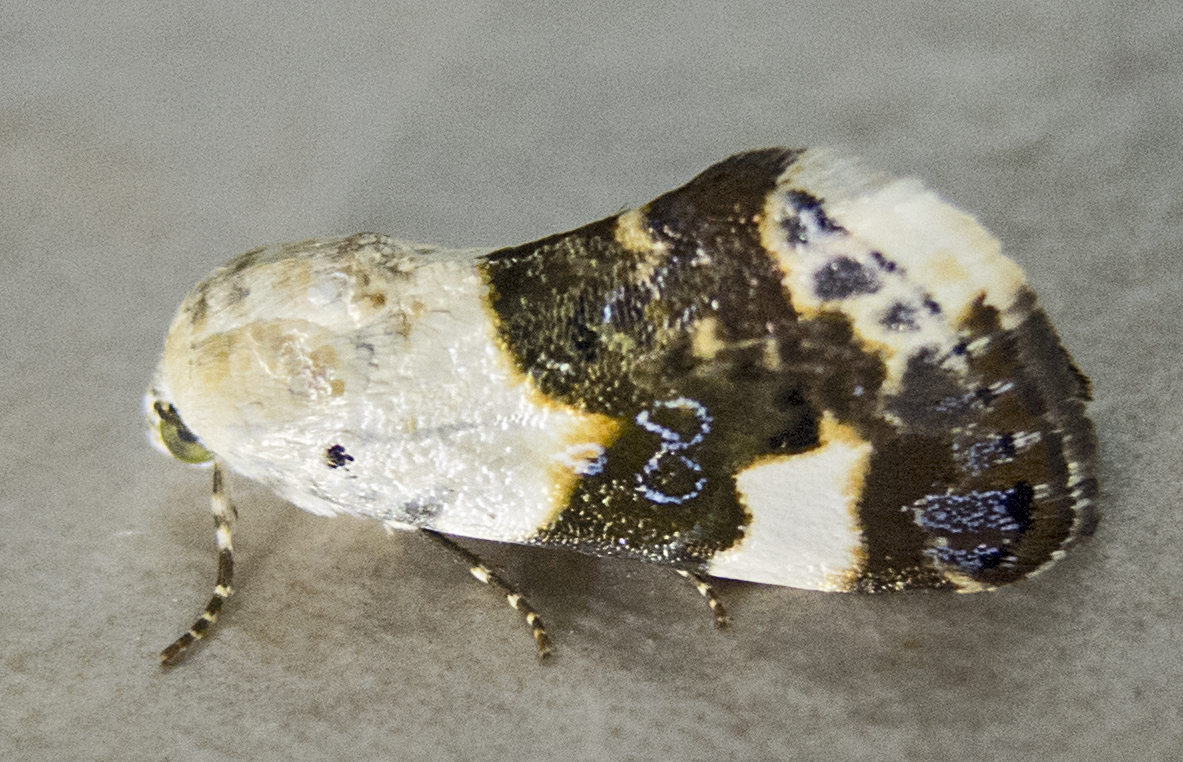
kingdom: Animalia
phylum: Arthropoda
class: Insecta
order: Lepidoptera
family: Noctuidae
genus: Acontia
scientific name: Acontia lucida
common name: Pale shoulder
